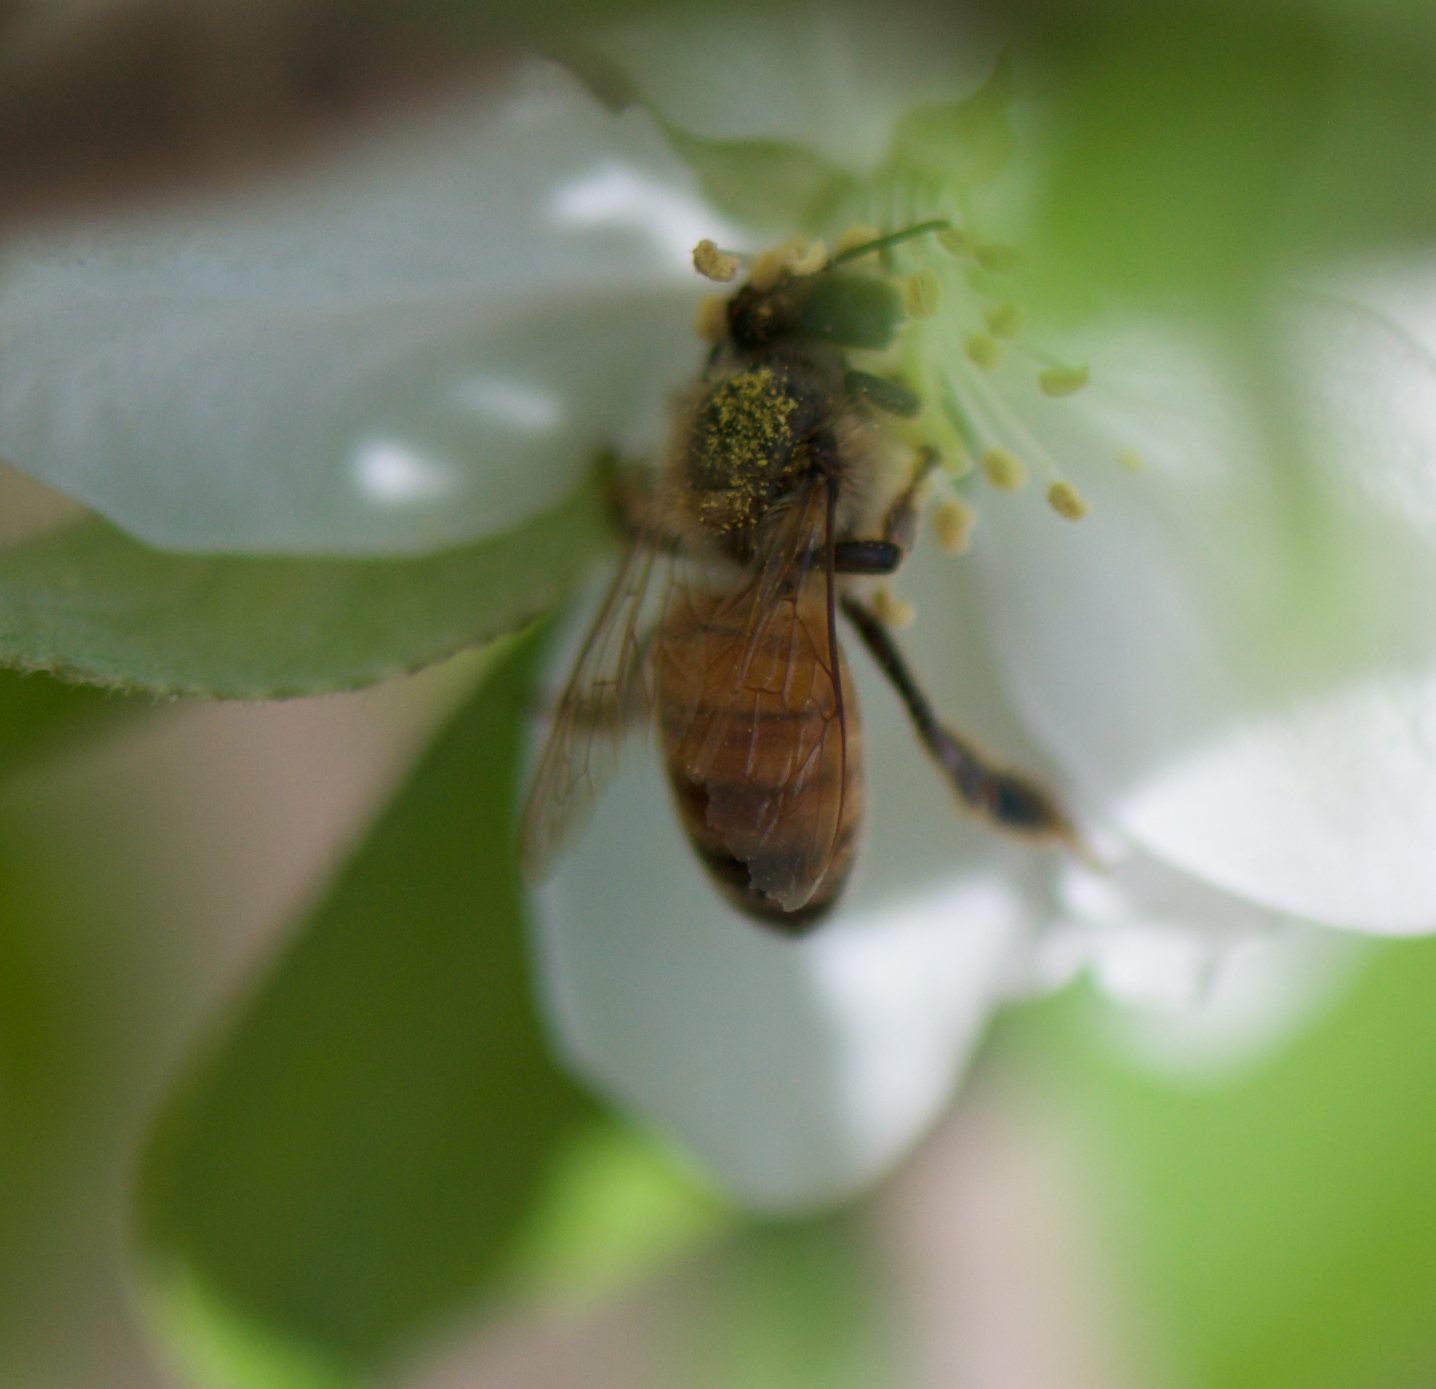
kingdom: Animalia
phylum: Arthropoda
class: Insecta
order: Hymenoptera
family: Apidae
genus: Apis
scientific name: Apis mellifera
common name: Honey bee
